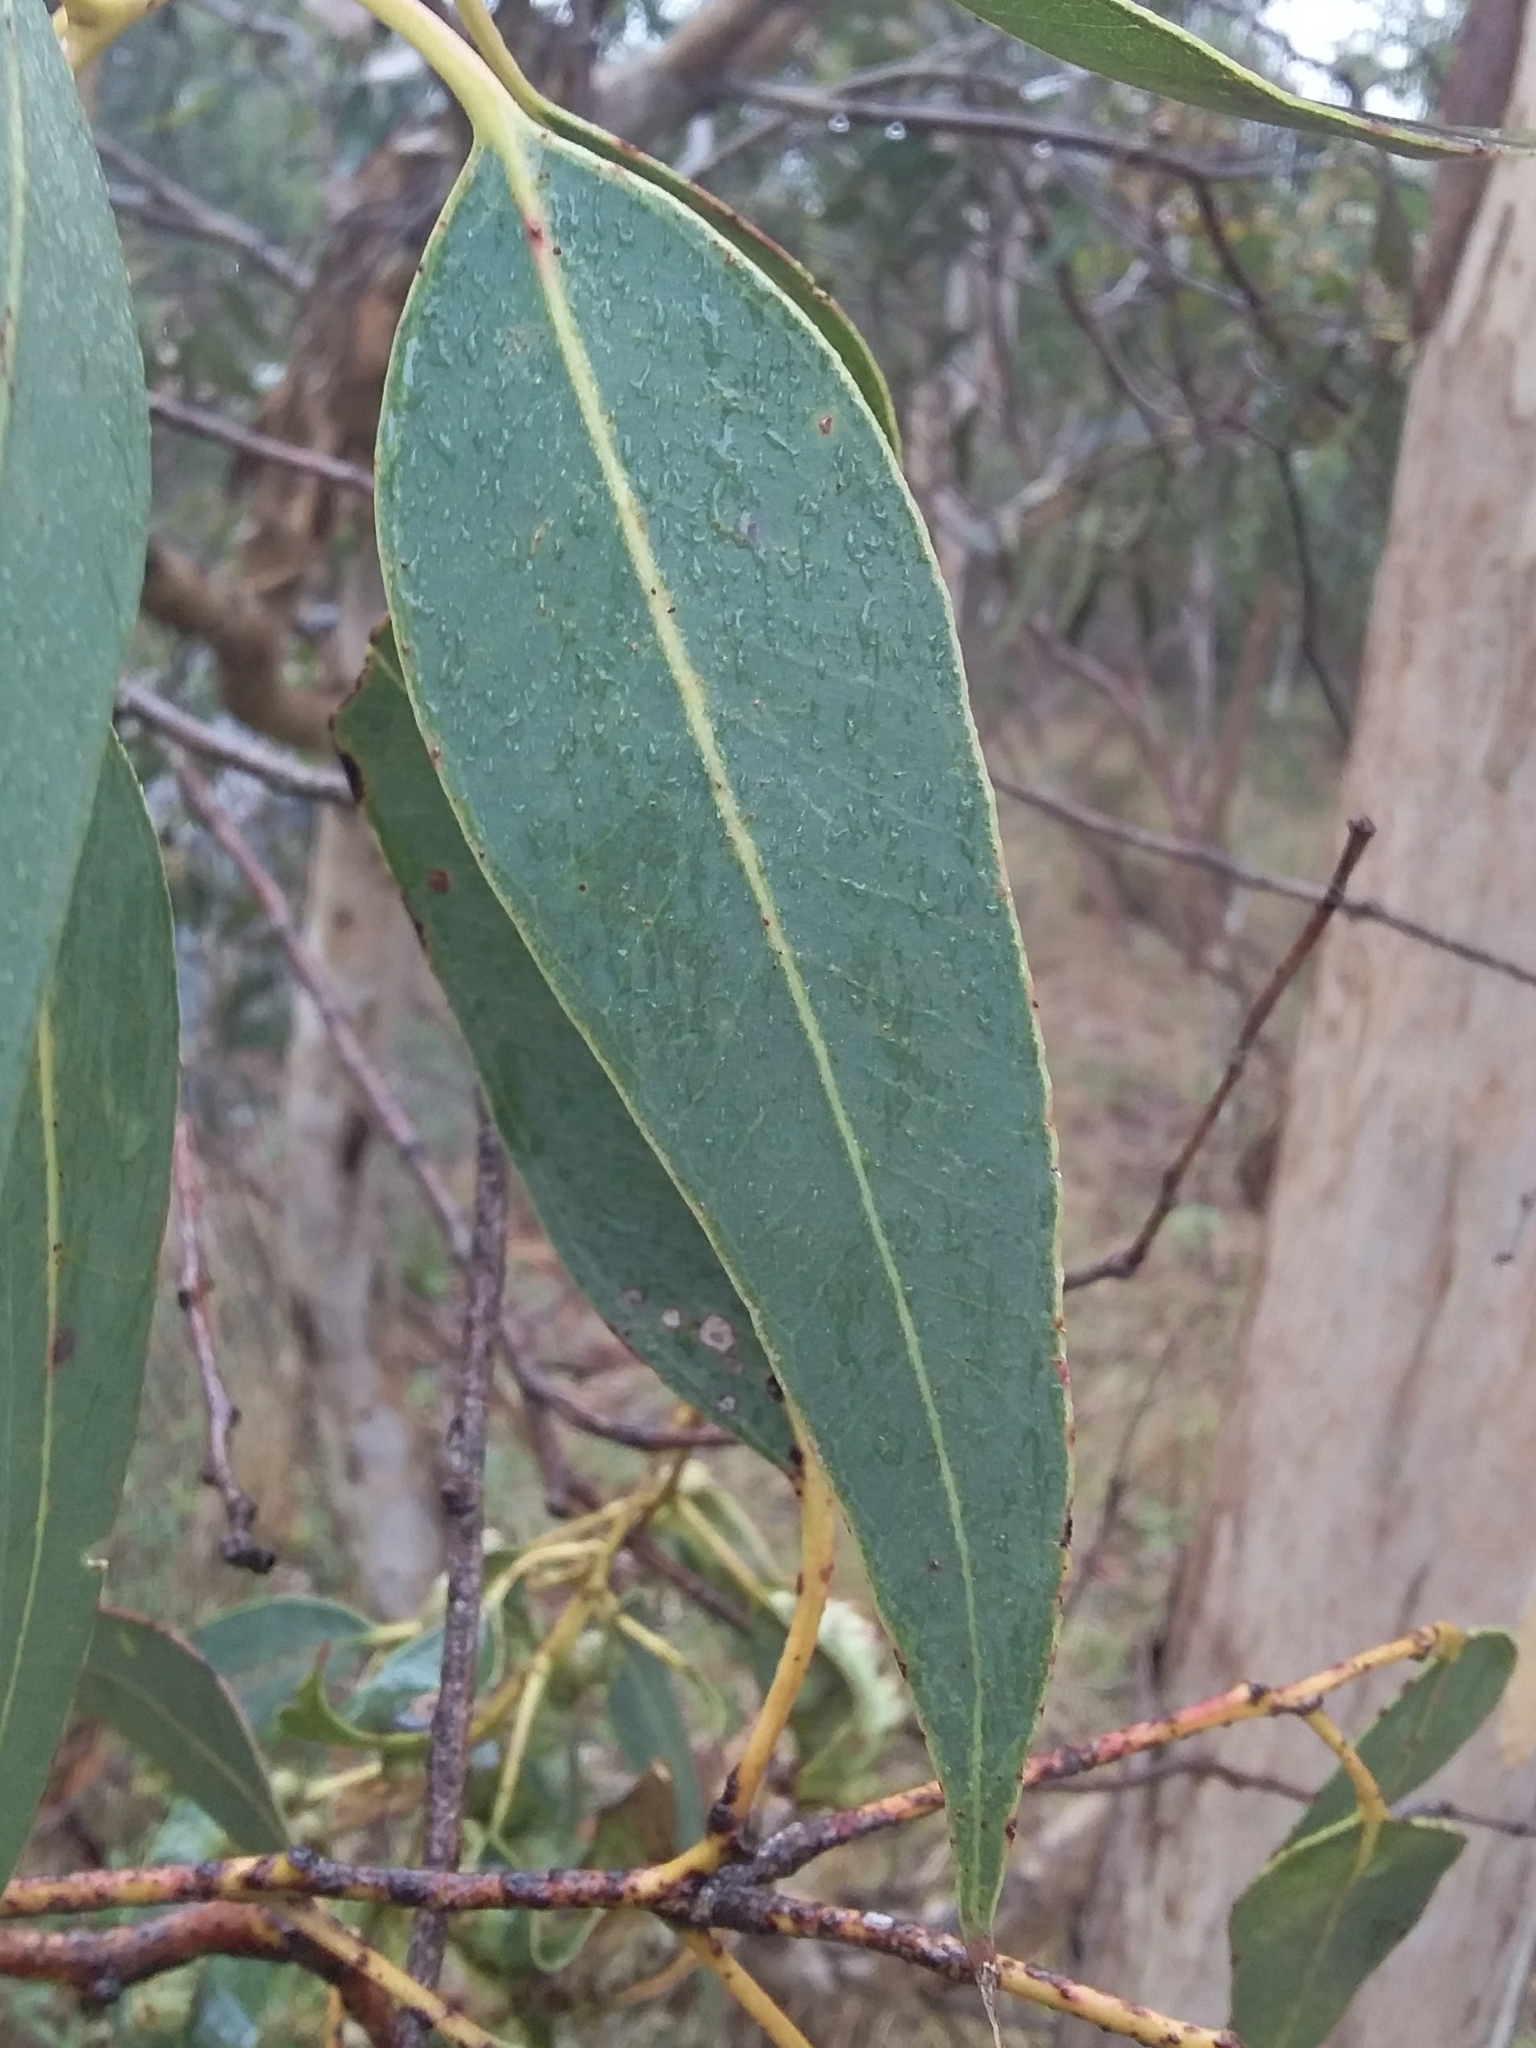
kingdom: Plantae
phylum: Tracheophyta
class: Magnoliopsida
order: Myrtales
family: Myrtaceae
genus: Eucalyptus
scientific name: Eucalyptus cosmophylla
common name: Bog-gum
